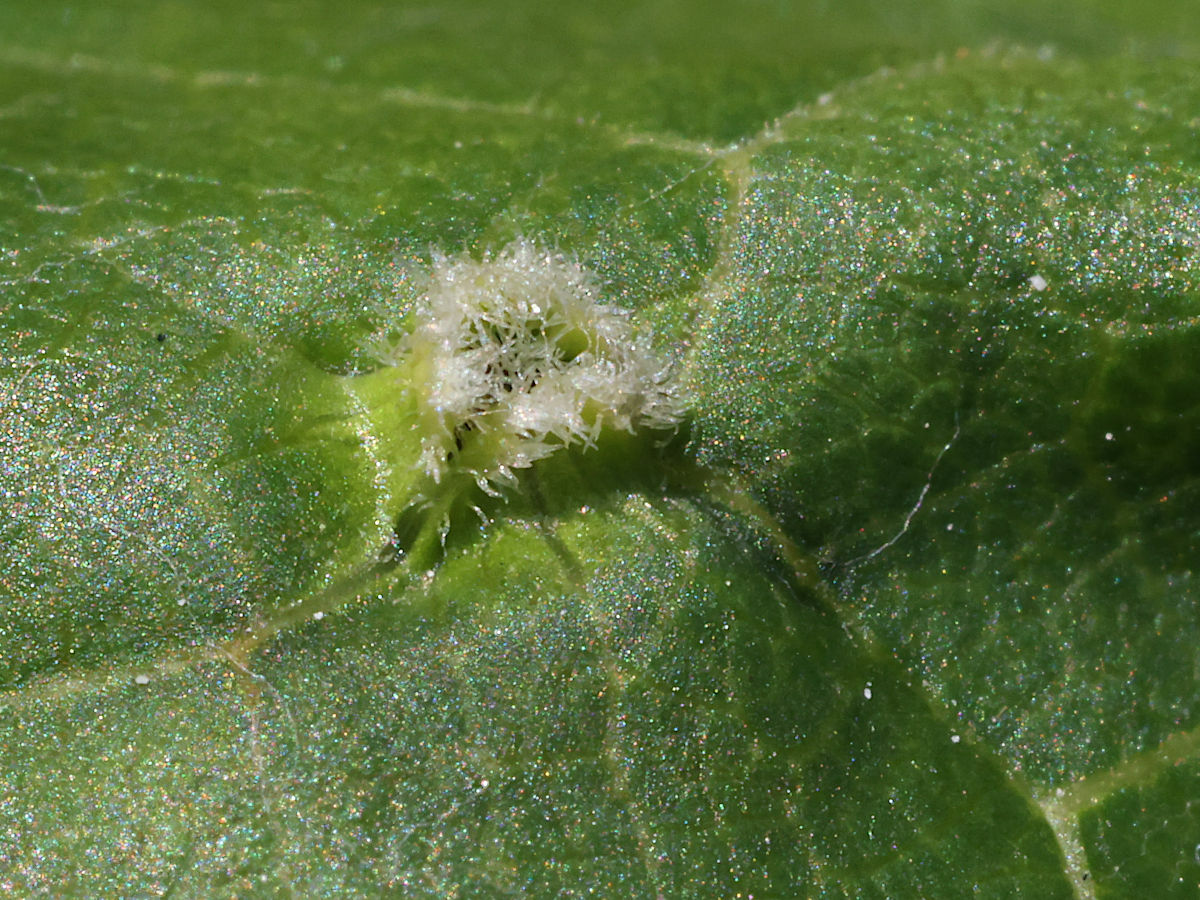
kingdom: Animalia
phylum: Arthropoda
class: Insecta
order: Hemiptera
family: Phylloxeridae
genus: Daktulosphaira
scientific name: Daktulosphaira vitifoliae
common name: Grape phylloxera
